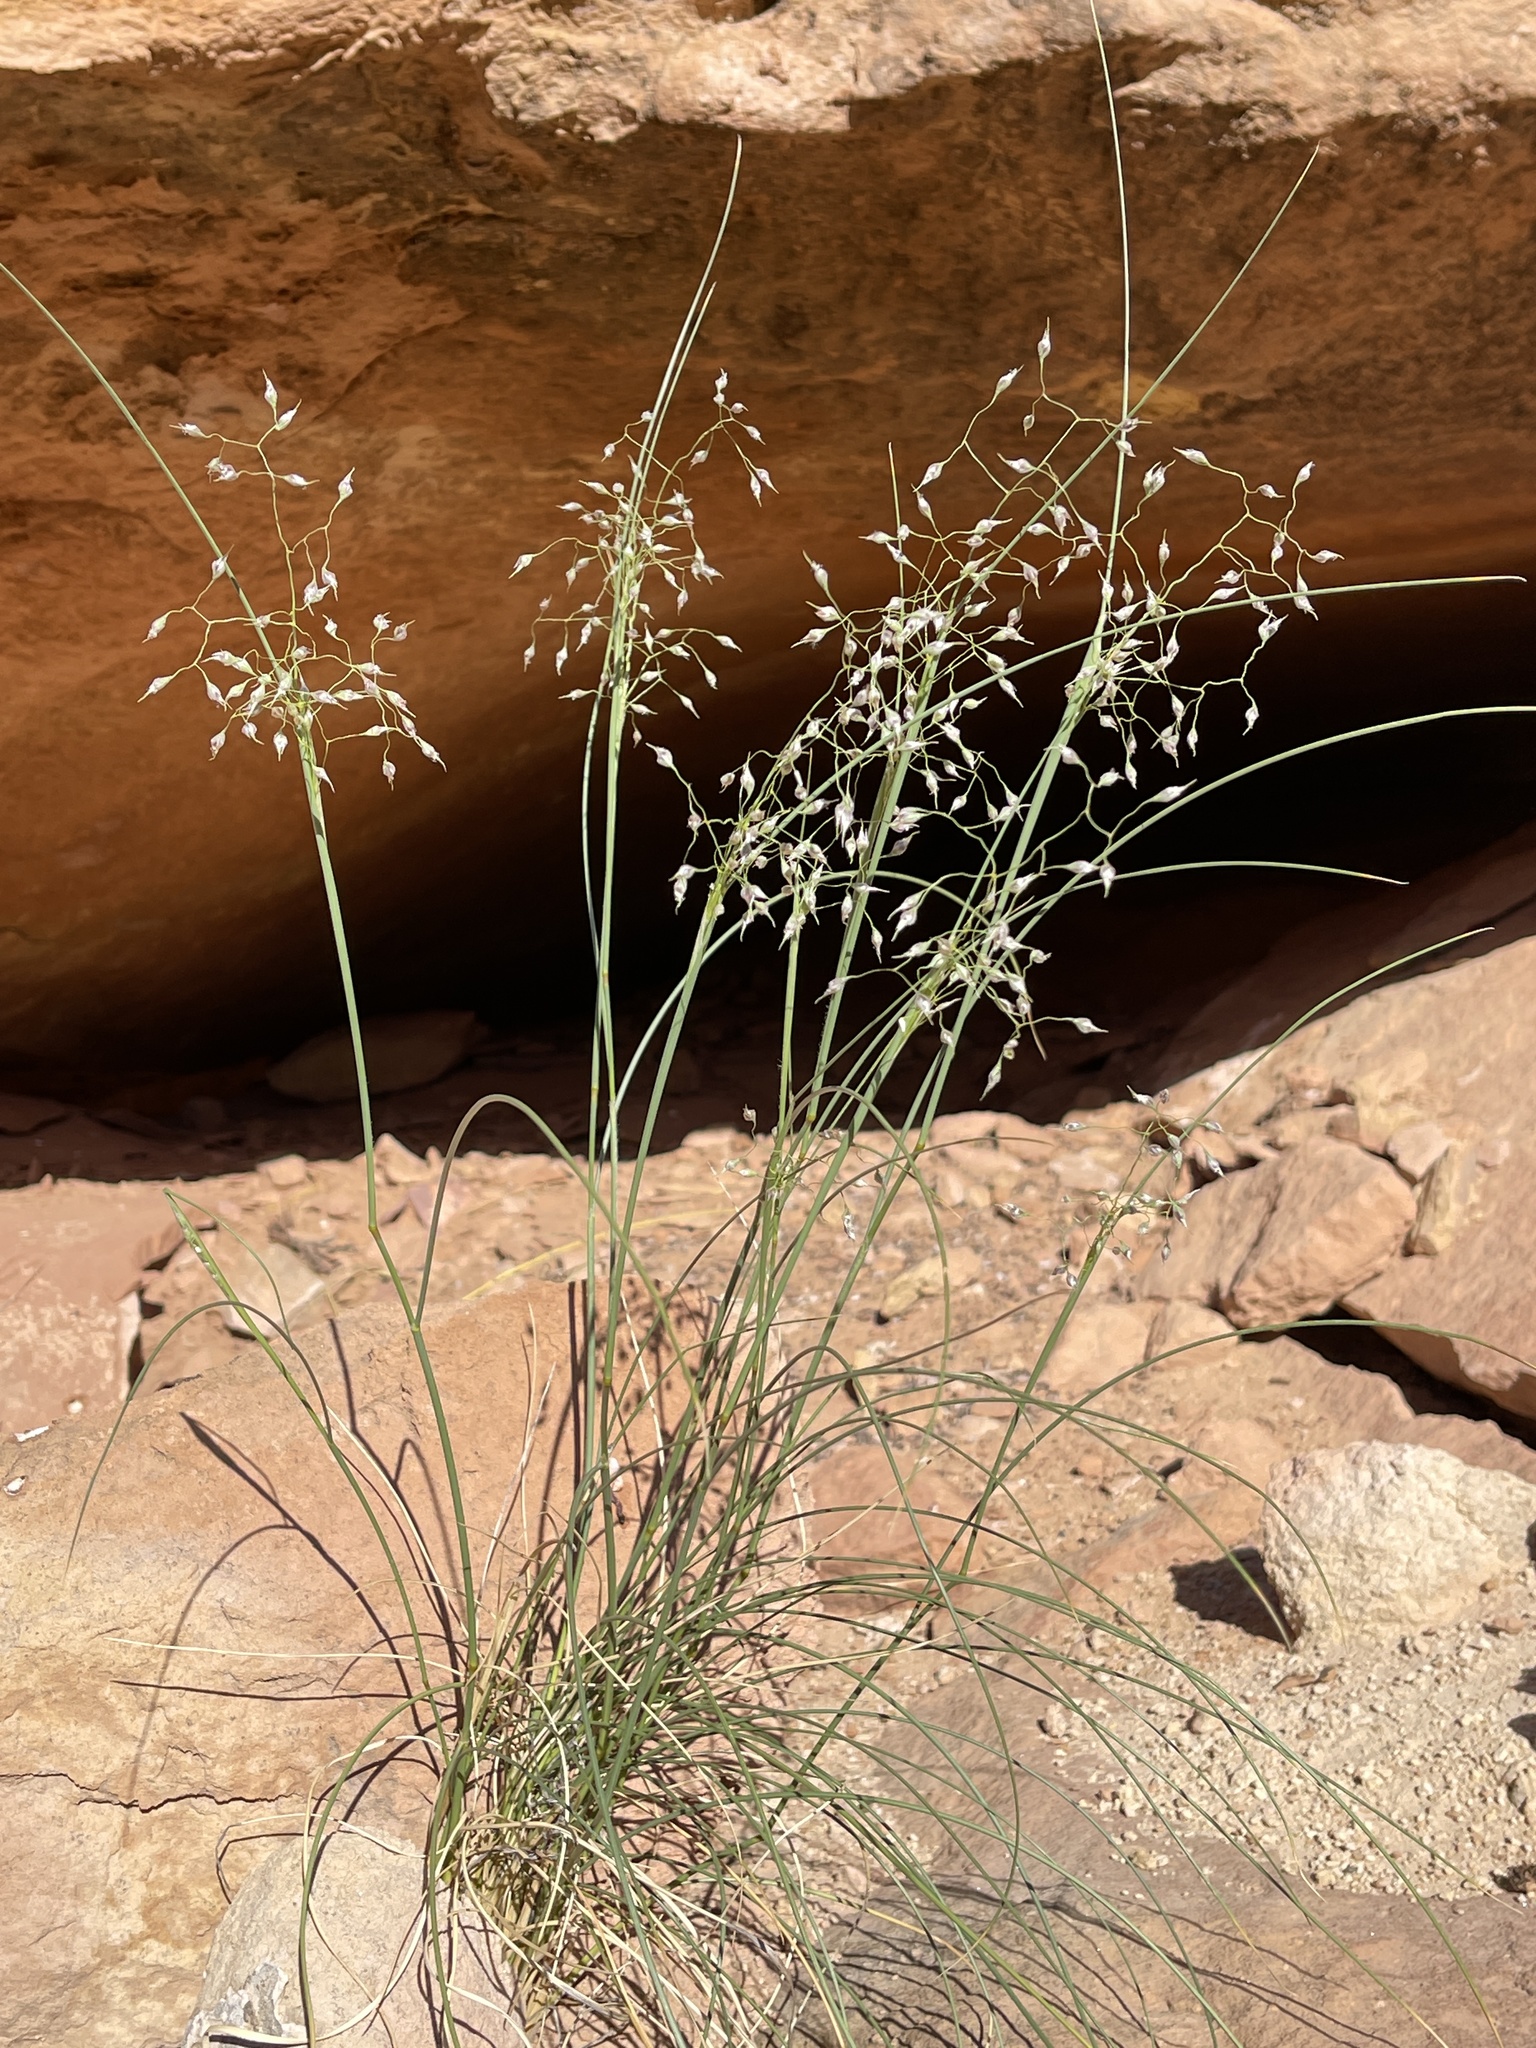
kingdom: Plantae
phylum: Tracheophyta
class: Liliopsida
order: Poales
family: Poaceae
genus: Eriocoma
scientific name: Eriocoma hymenoides
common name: Indian mountain ricegrass
